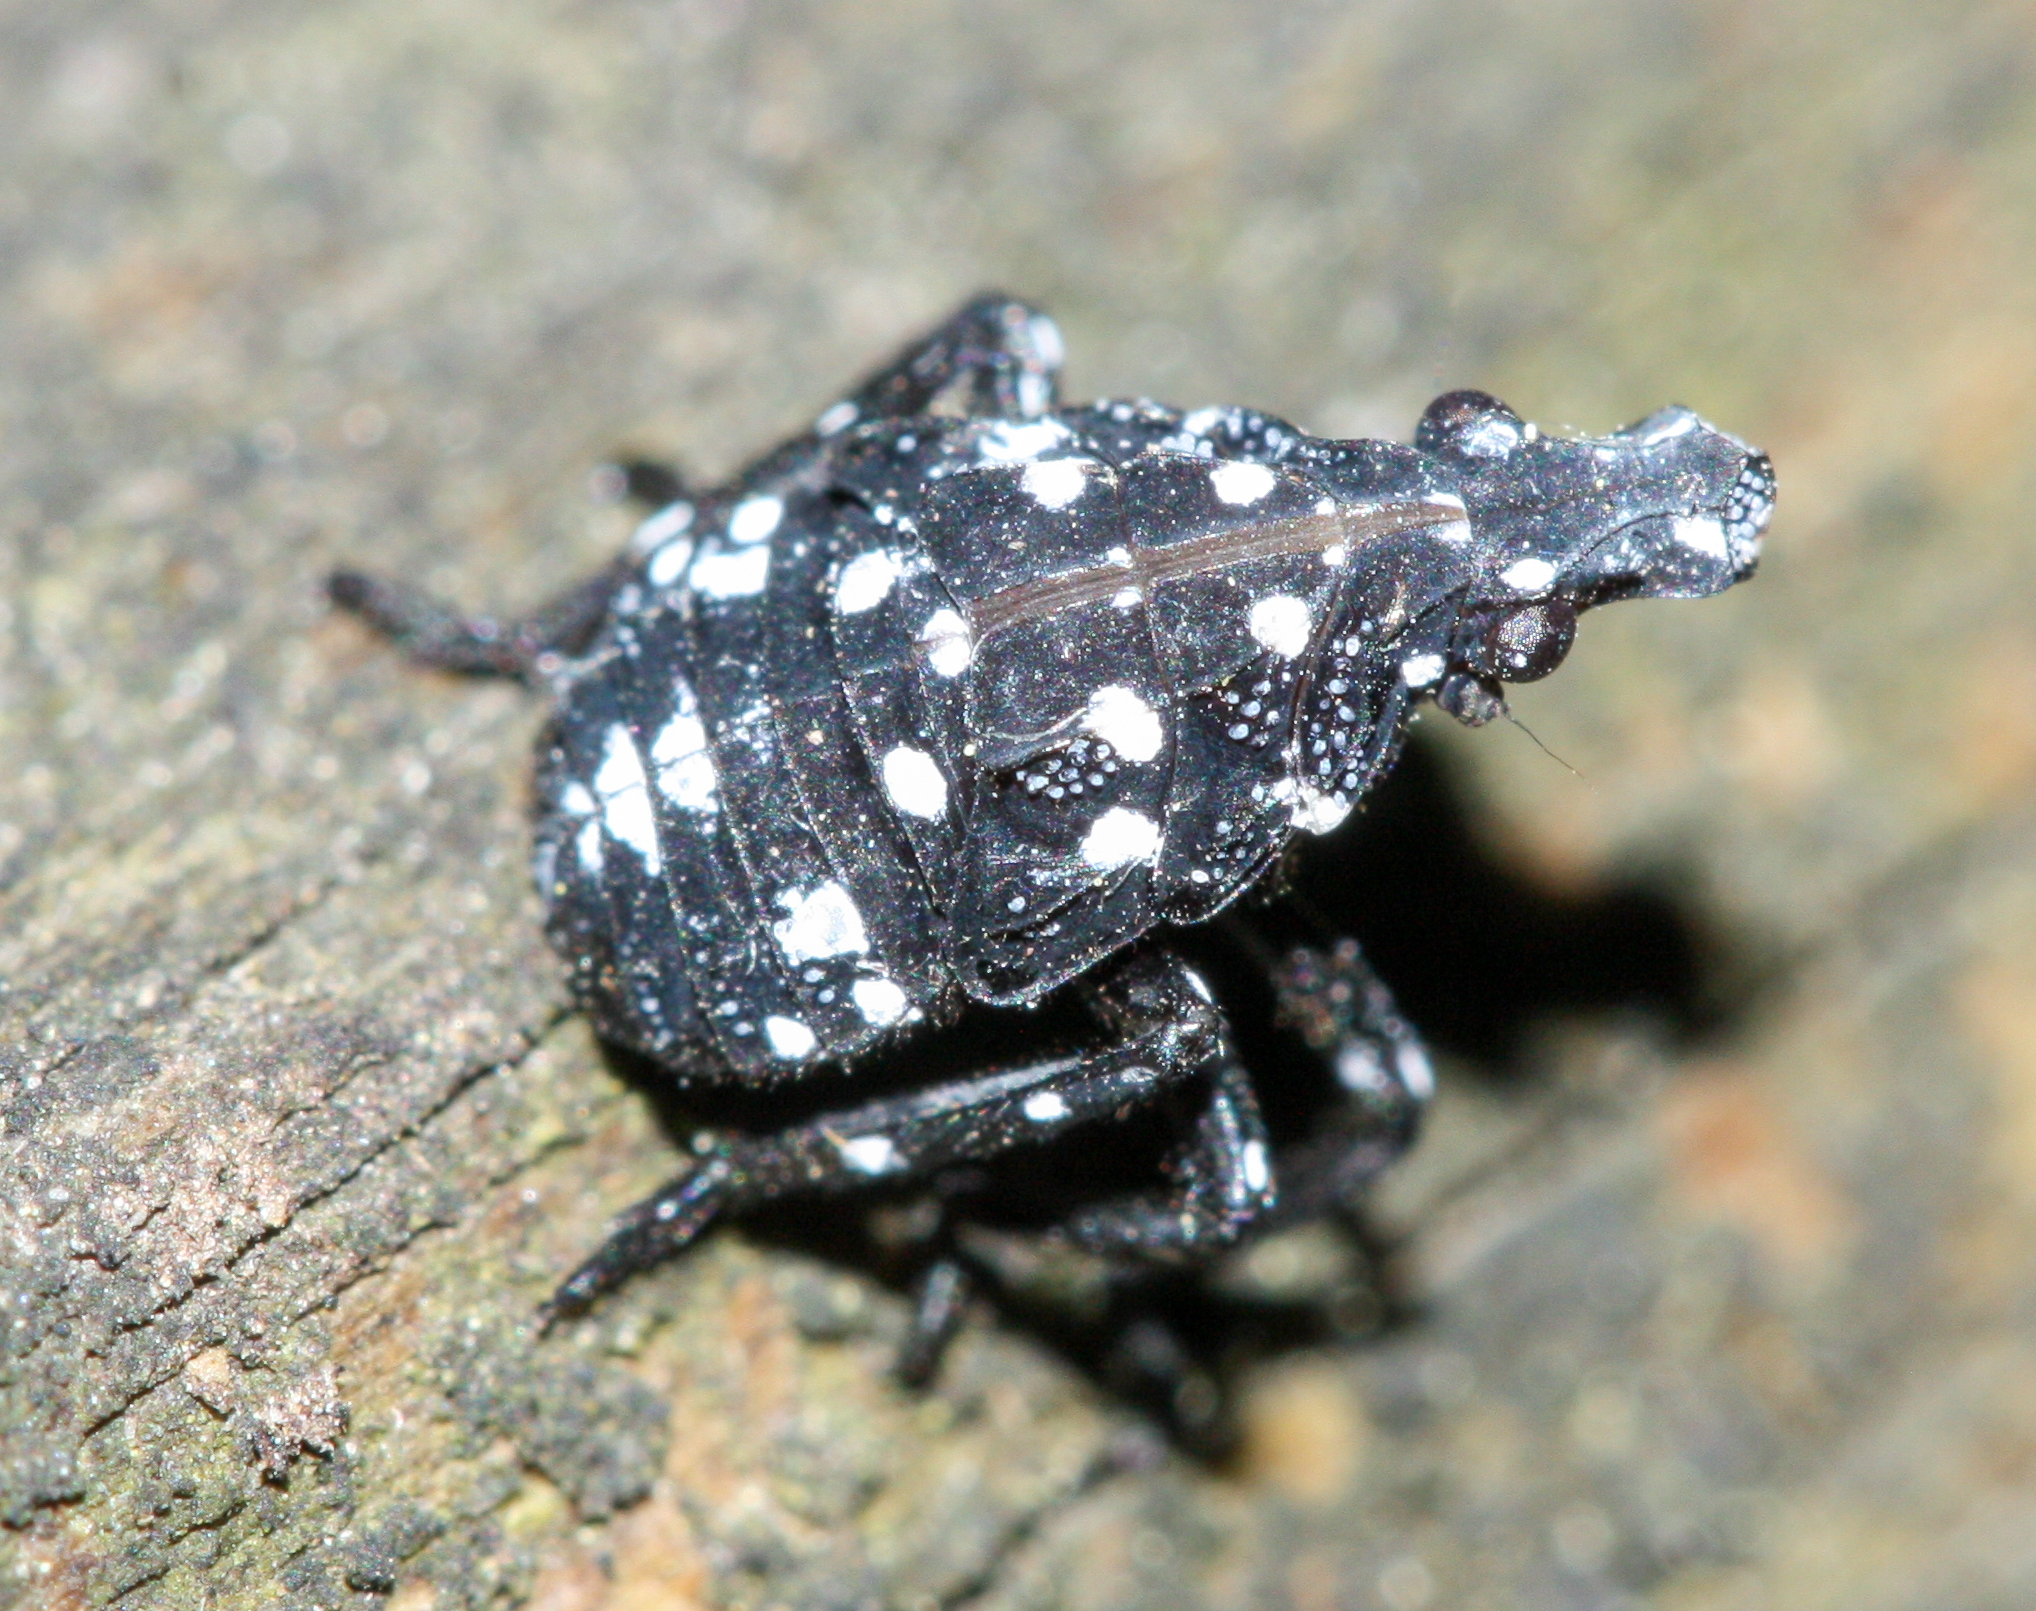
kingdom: Animalia
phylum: Arthropoda
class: Insecta
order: Hemiptera
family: Fulgoridae
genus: Lycorma
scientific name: Lycorma delicatula
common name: Spotted lanternfly
